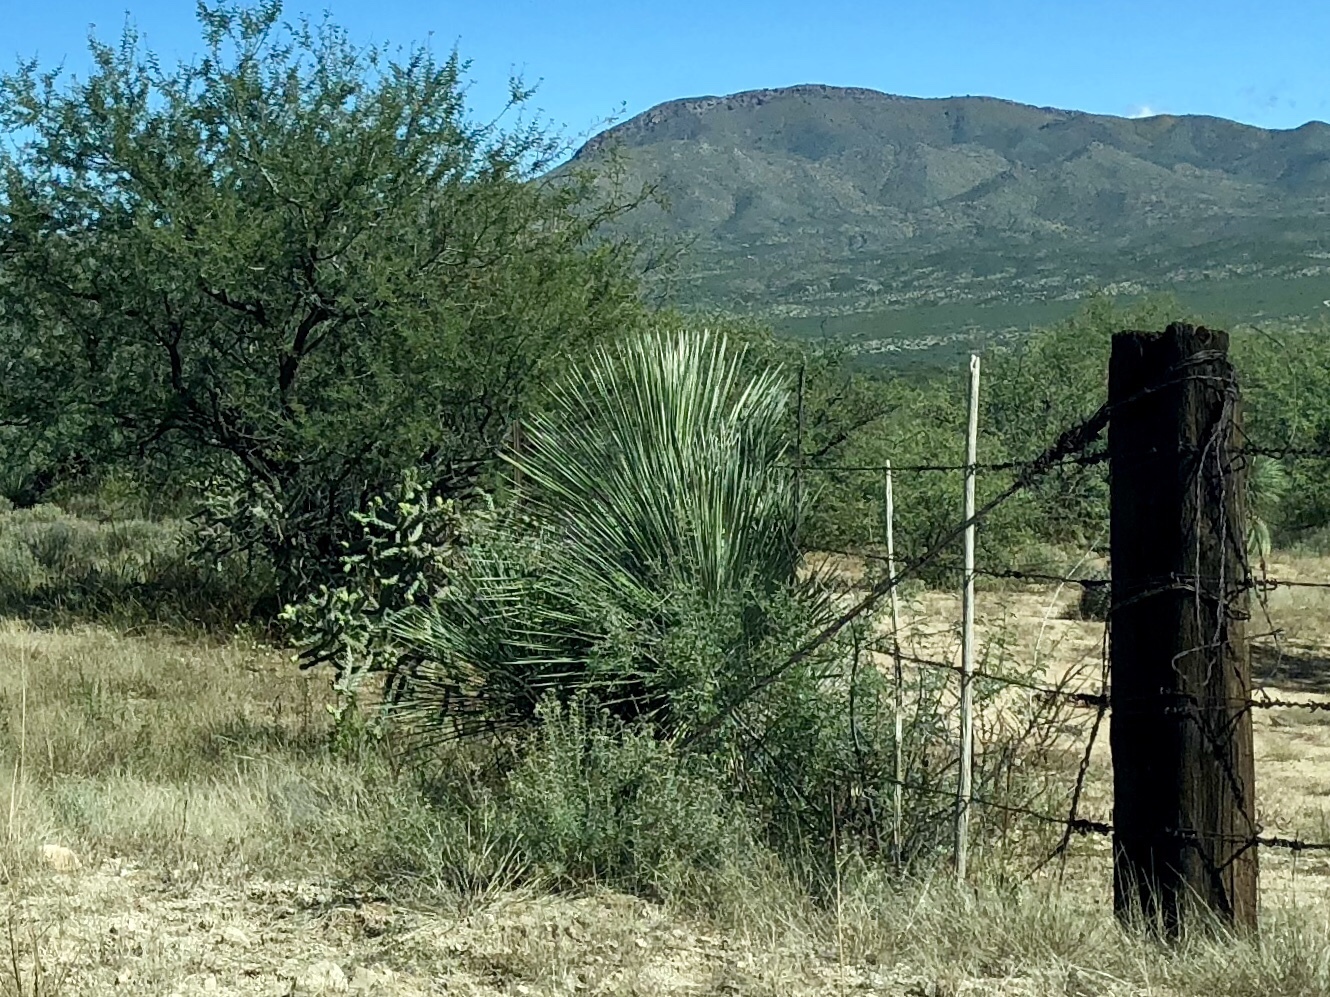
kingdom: Plantae
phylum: Tracheophyta
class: Liliopsida
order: Asparagales
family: Asparagaceae
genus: Yucca
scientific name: Yucca elata
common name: Palmella
